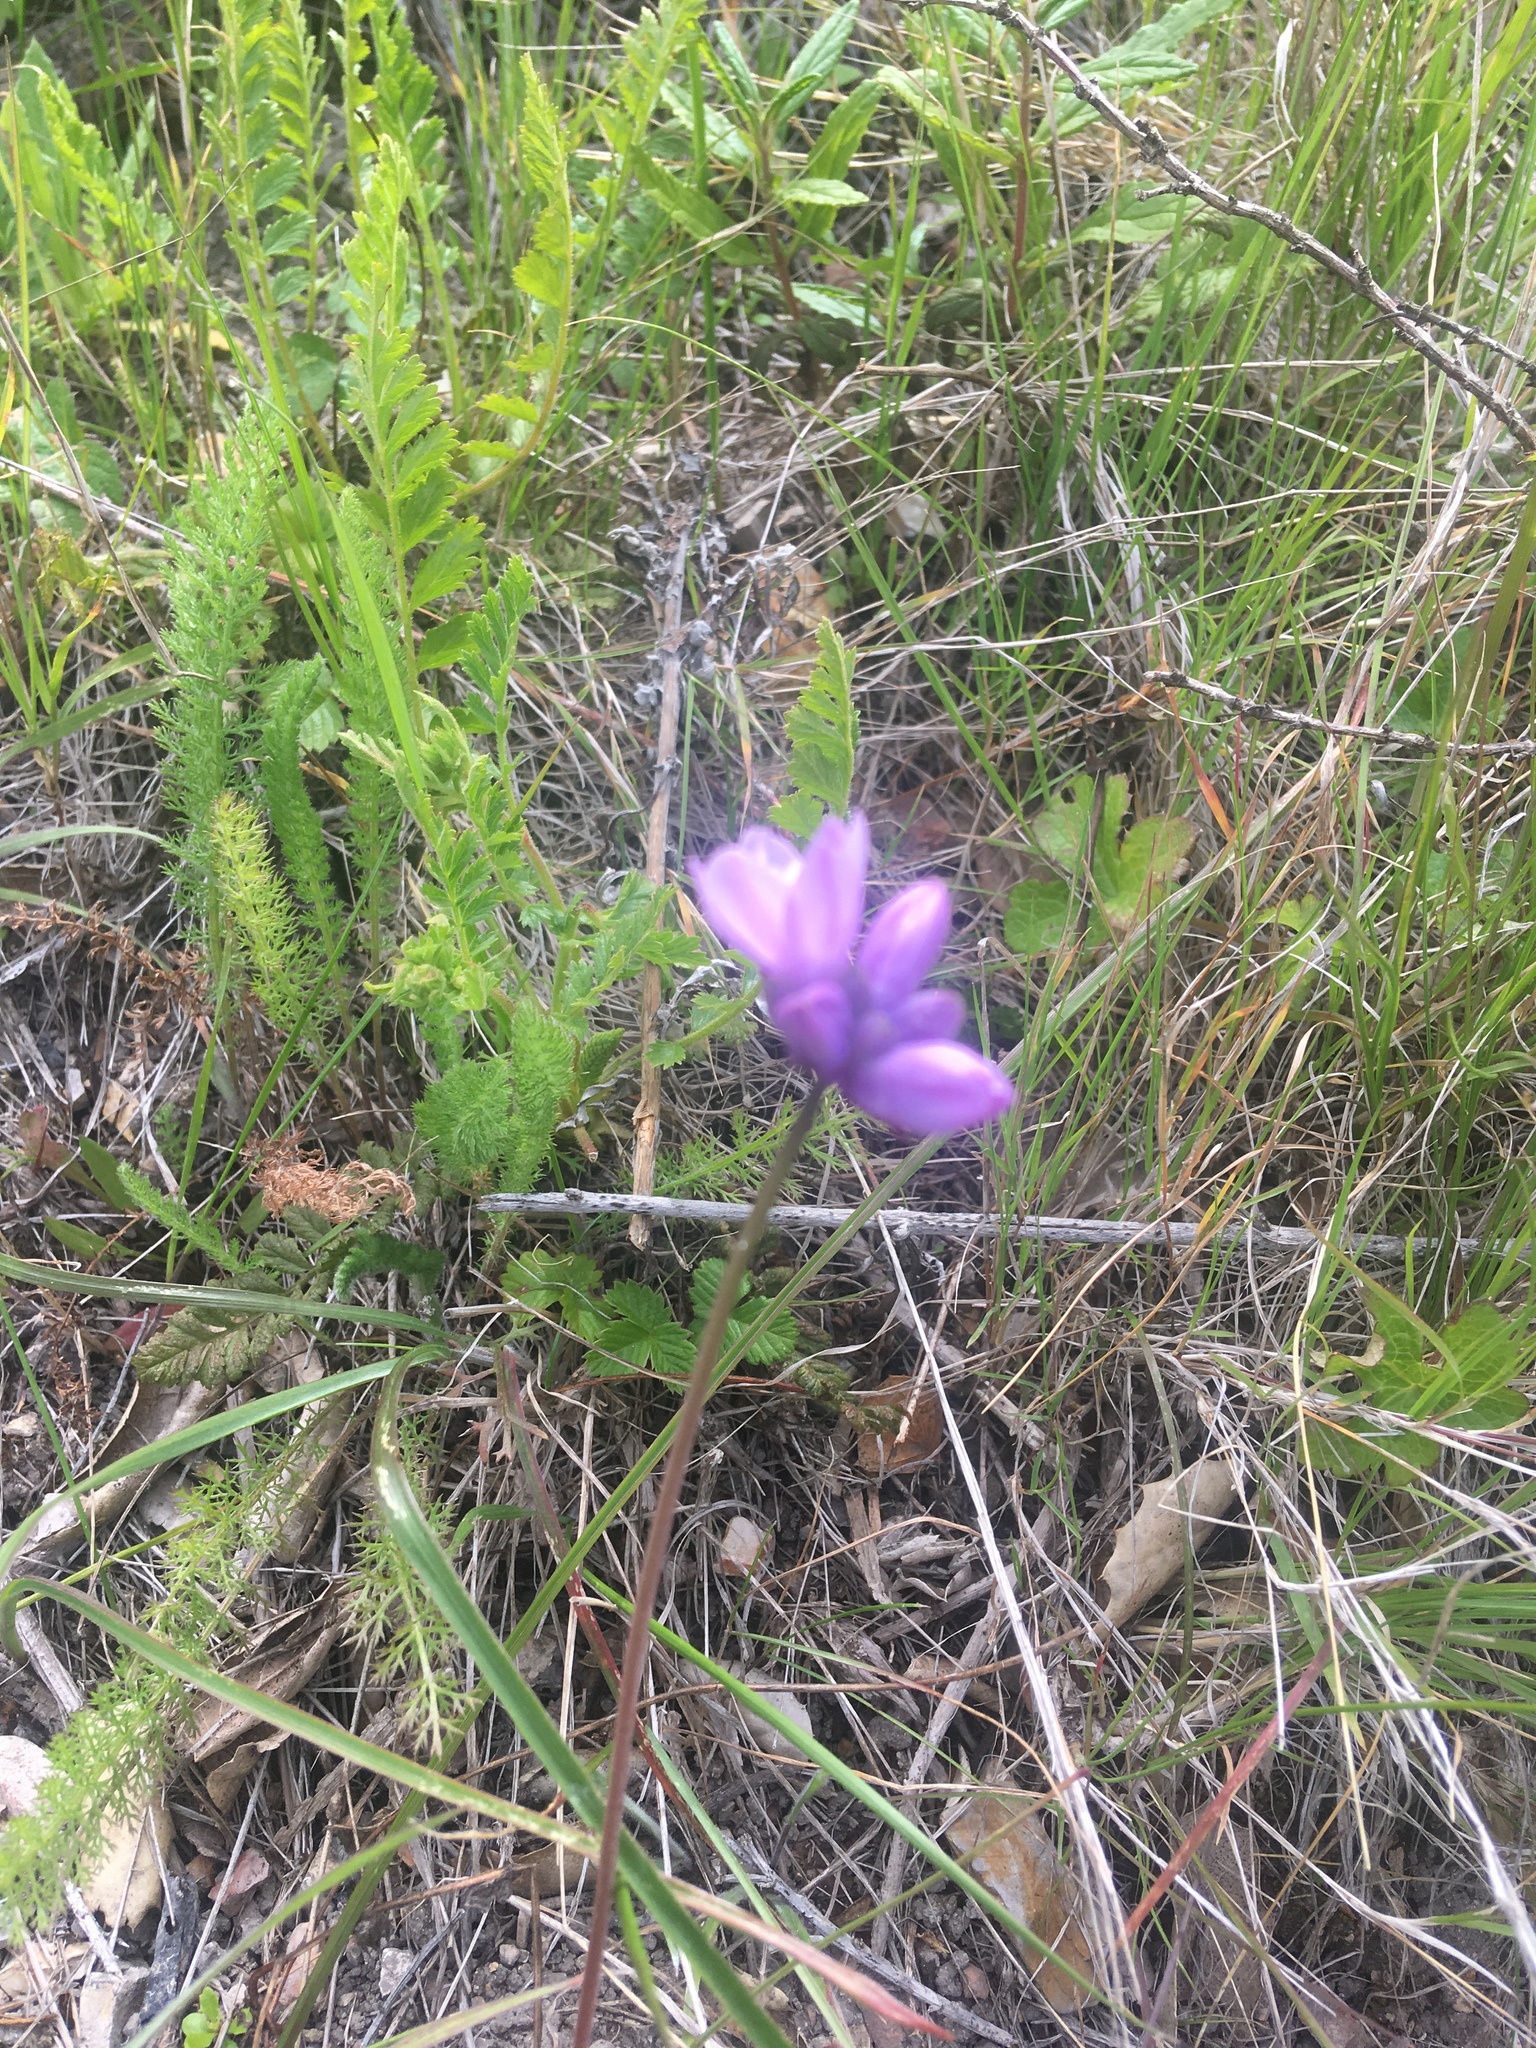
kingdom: Plantae
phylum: Tracheophyta
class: Liliopsida
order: Asparagales
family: Asparagaceae
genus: Dipterostemon
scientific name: Dipterostemon capitatus
